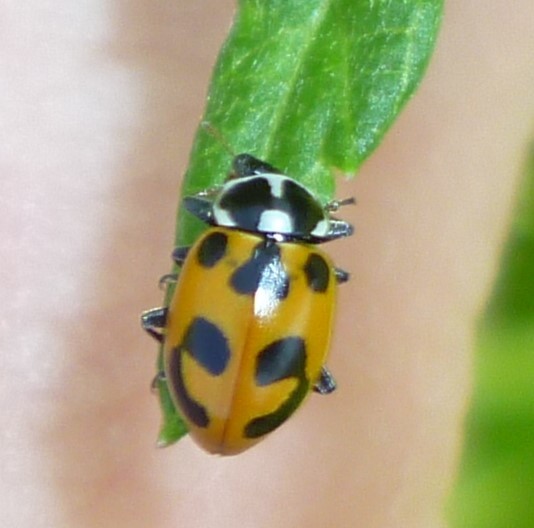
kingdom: Animalia
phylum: Arthropoda
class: Insecta
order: Coleoptera
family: Coccinellidae
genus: Hippodamia
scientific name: Hippodamia parenthesis
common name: Parenthesis lady beetle
